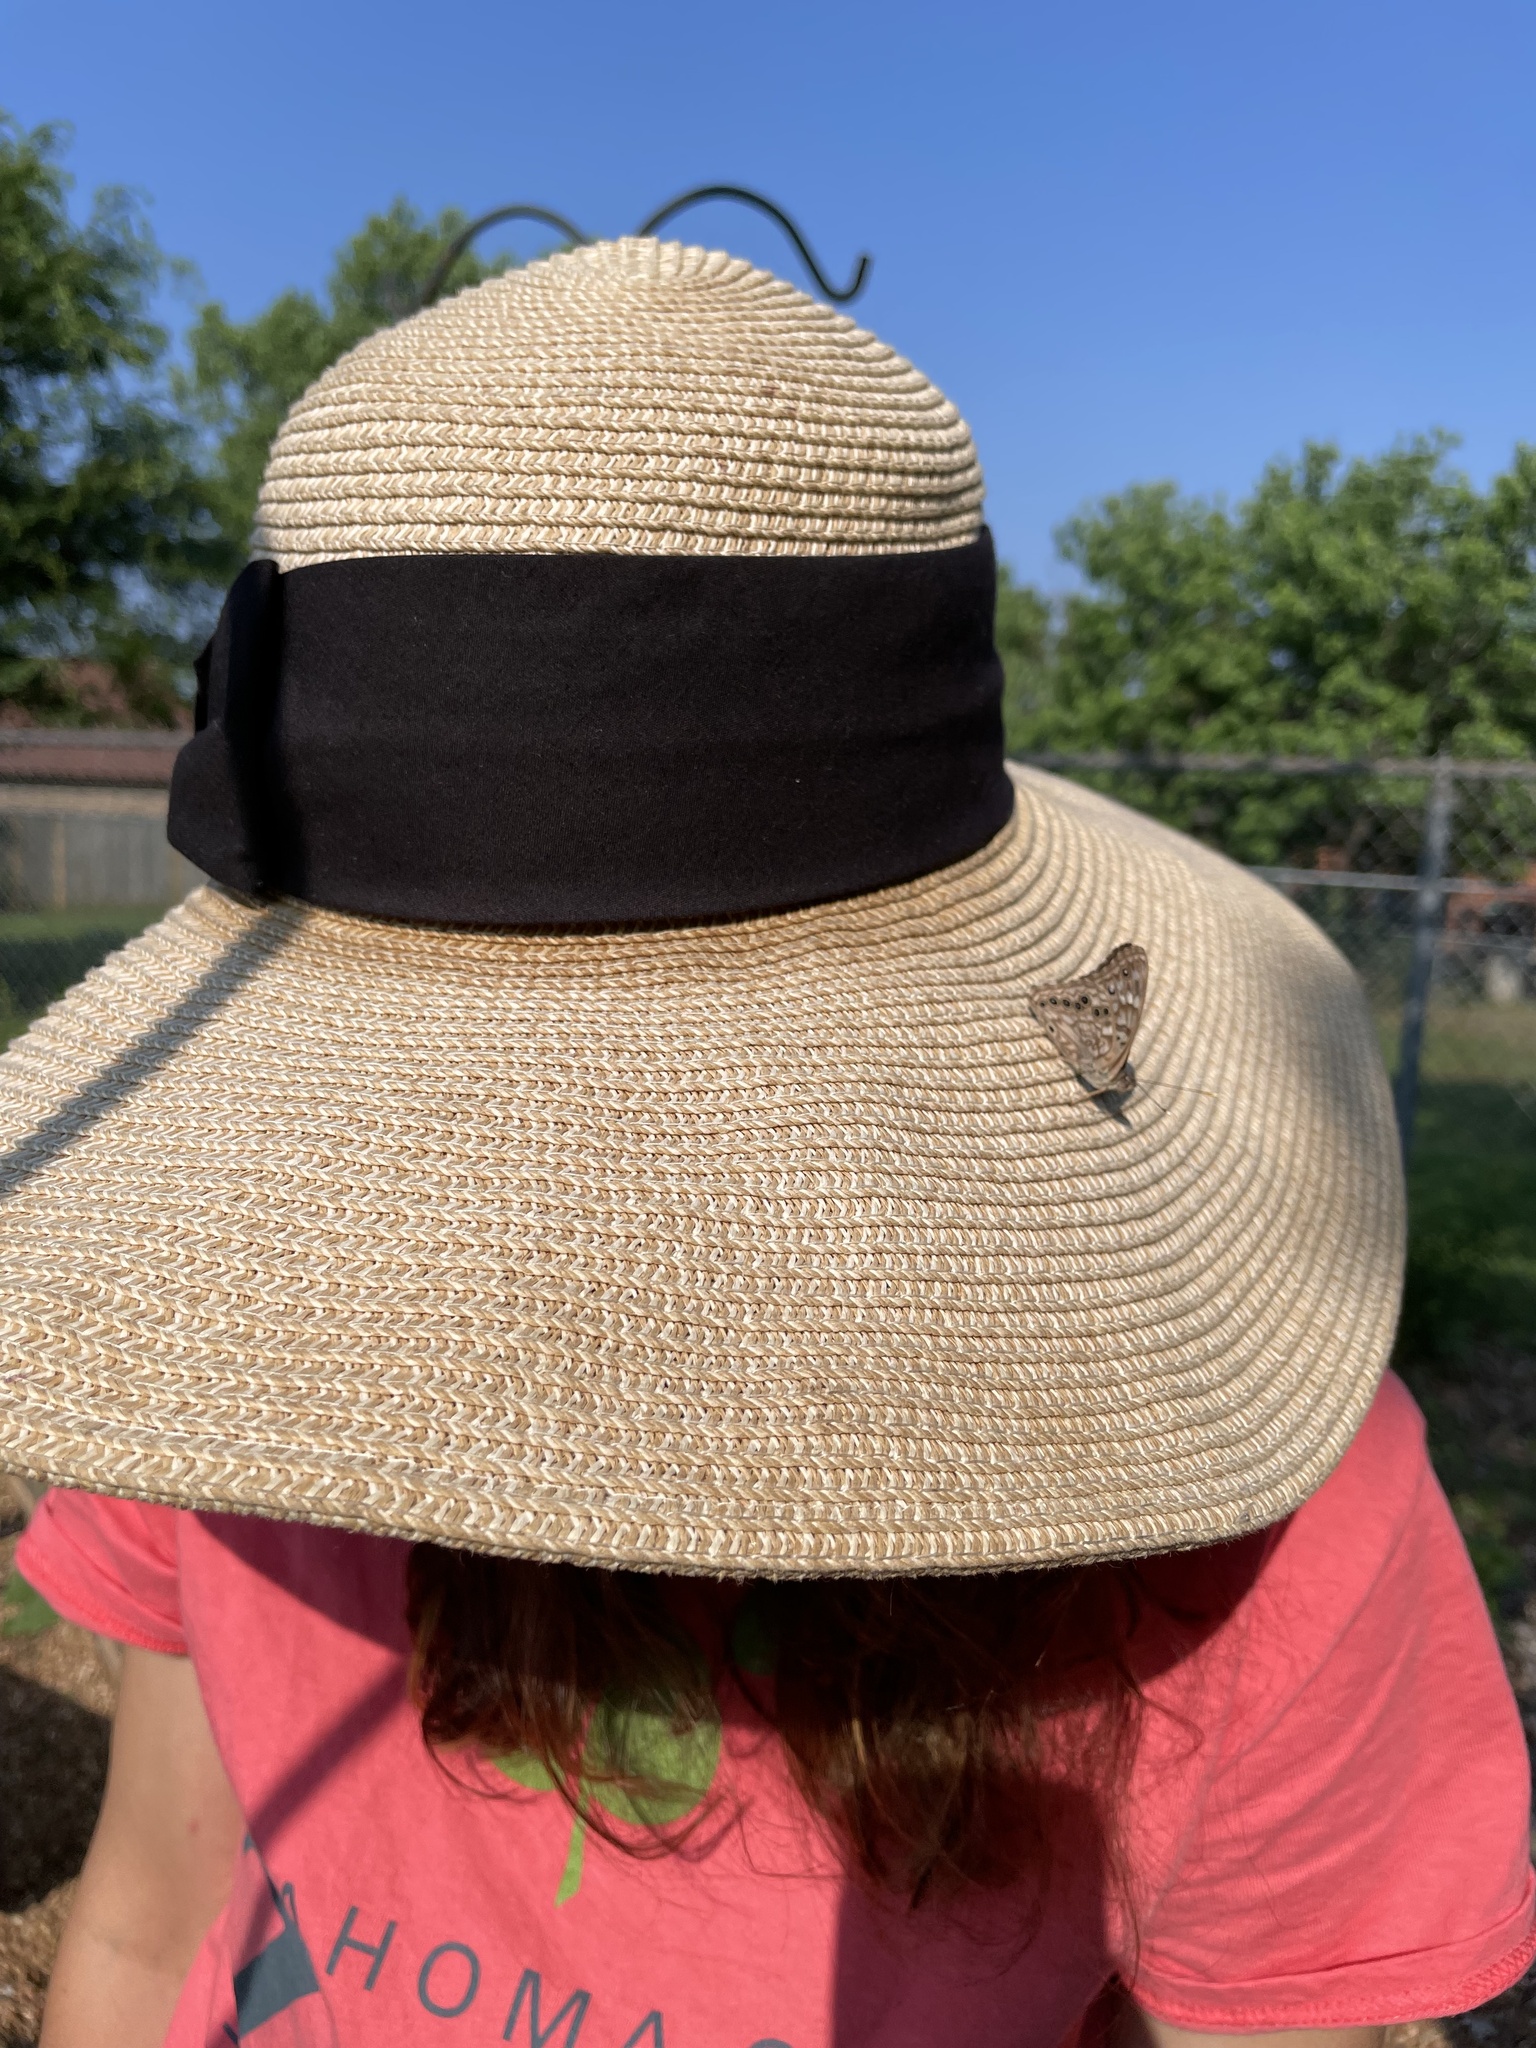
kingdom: Animalia
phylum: Arthropoda
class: Insecta
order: Lepidoptera
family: Nymphalidae
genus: Asterocampa
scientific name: Asterocampa celtis
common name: Hackberry emperor
